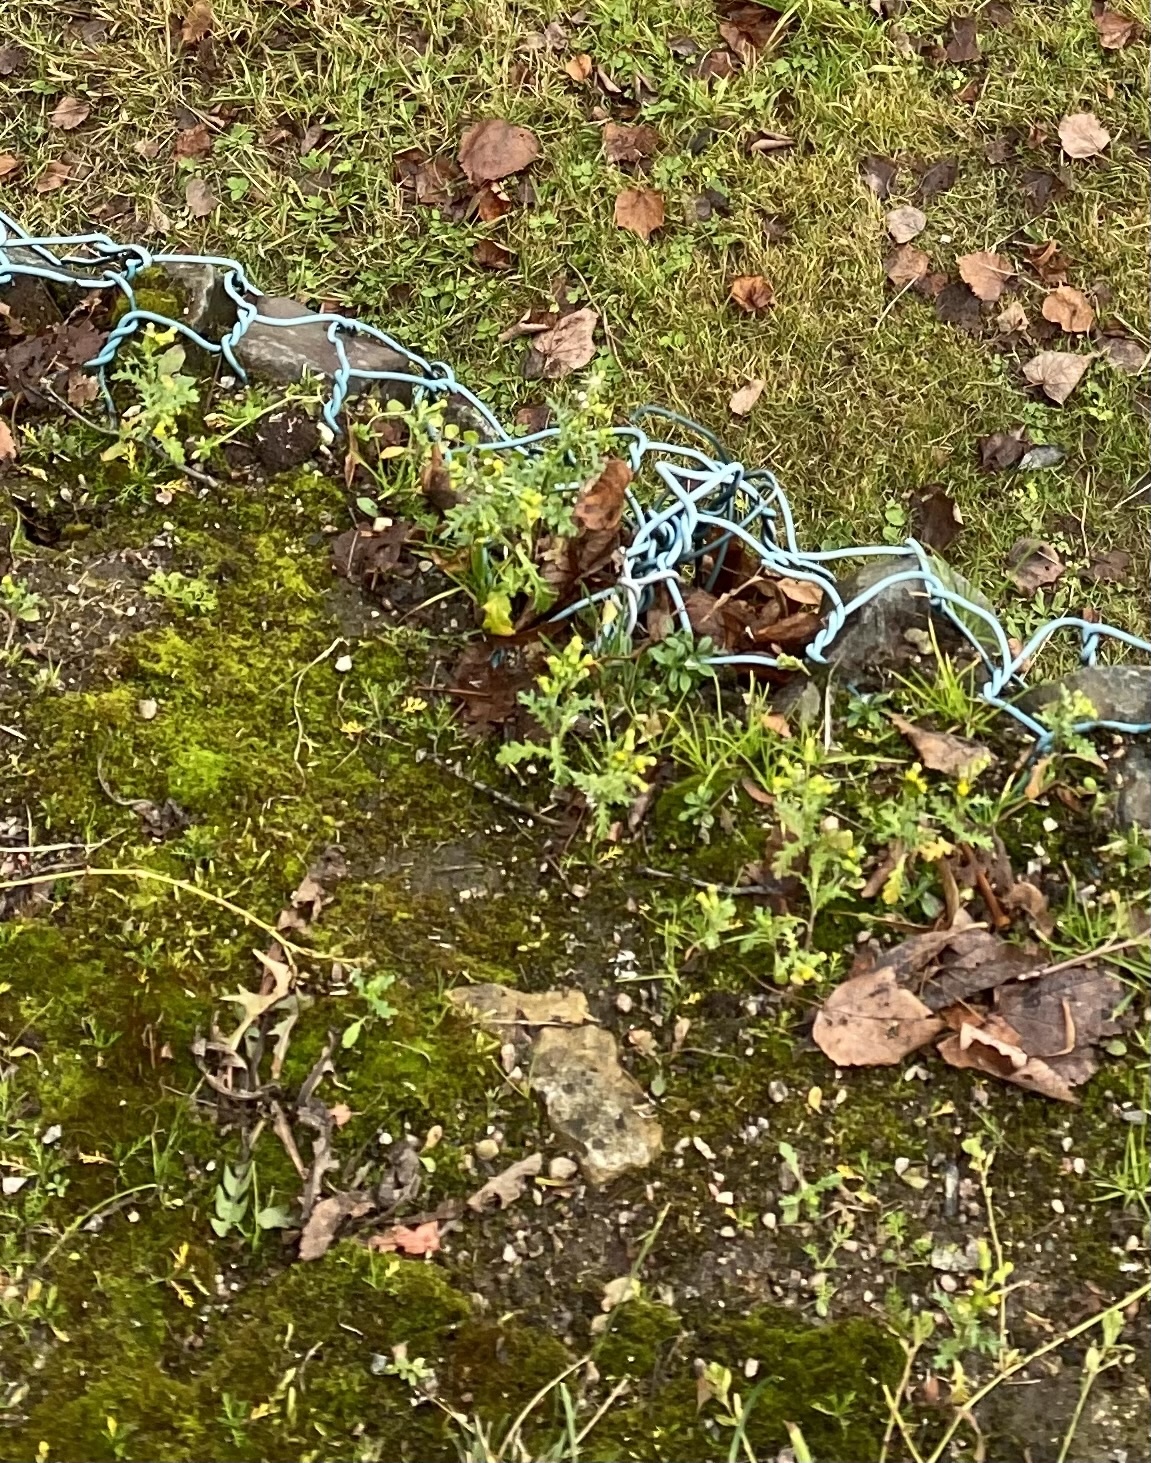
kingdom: Plantae
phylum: Tracheophyta
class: Magnoliopsida
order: Asterales
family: Asteraceae
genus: Senecio
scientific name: Senecio vulgaris
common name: Old-man-in-the-spring
